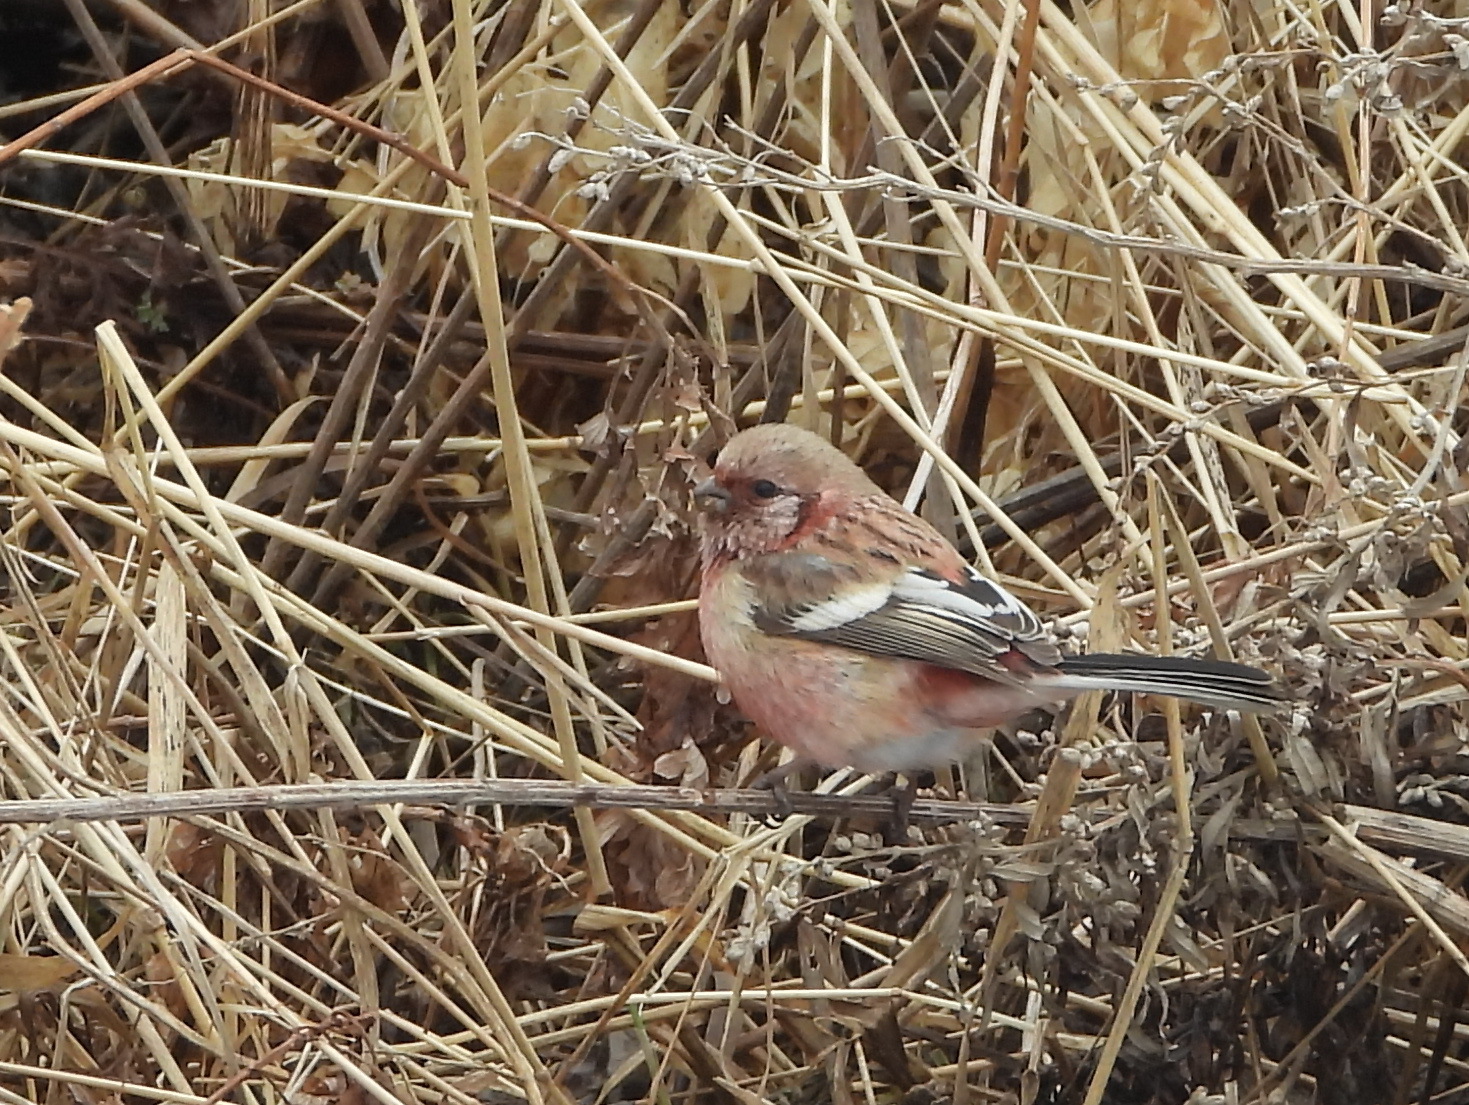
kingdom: Animalia
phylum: Chordata
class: Aves
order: Passeriformes
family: Fringillidae
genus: Carpodacus
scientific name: Carpodacus sibiricus
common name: Long-tailed rosefinch
